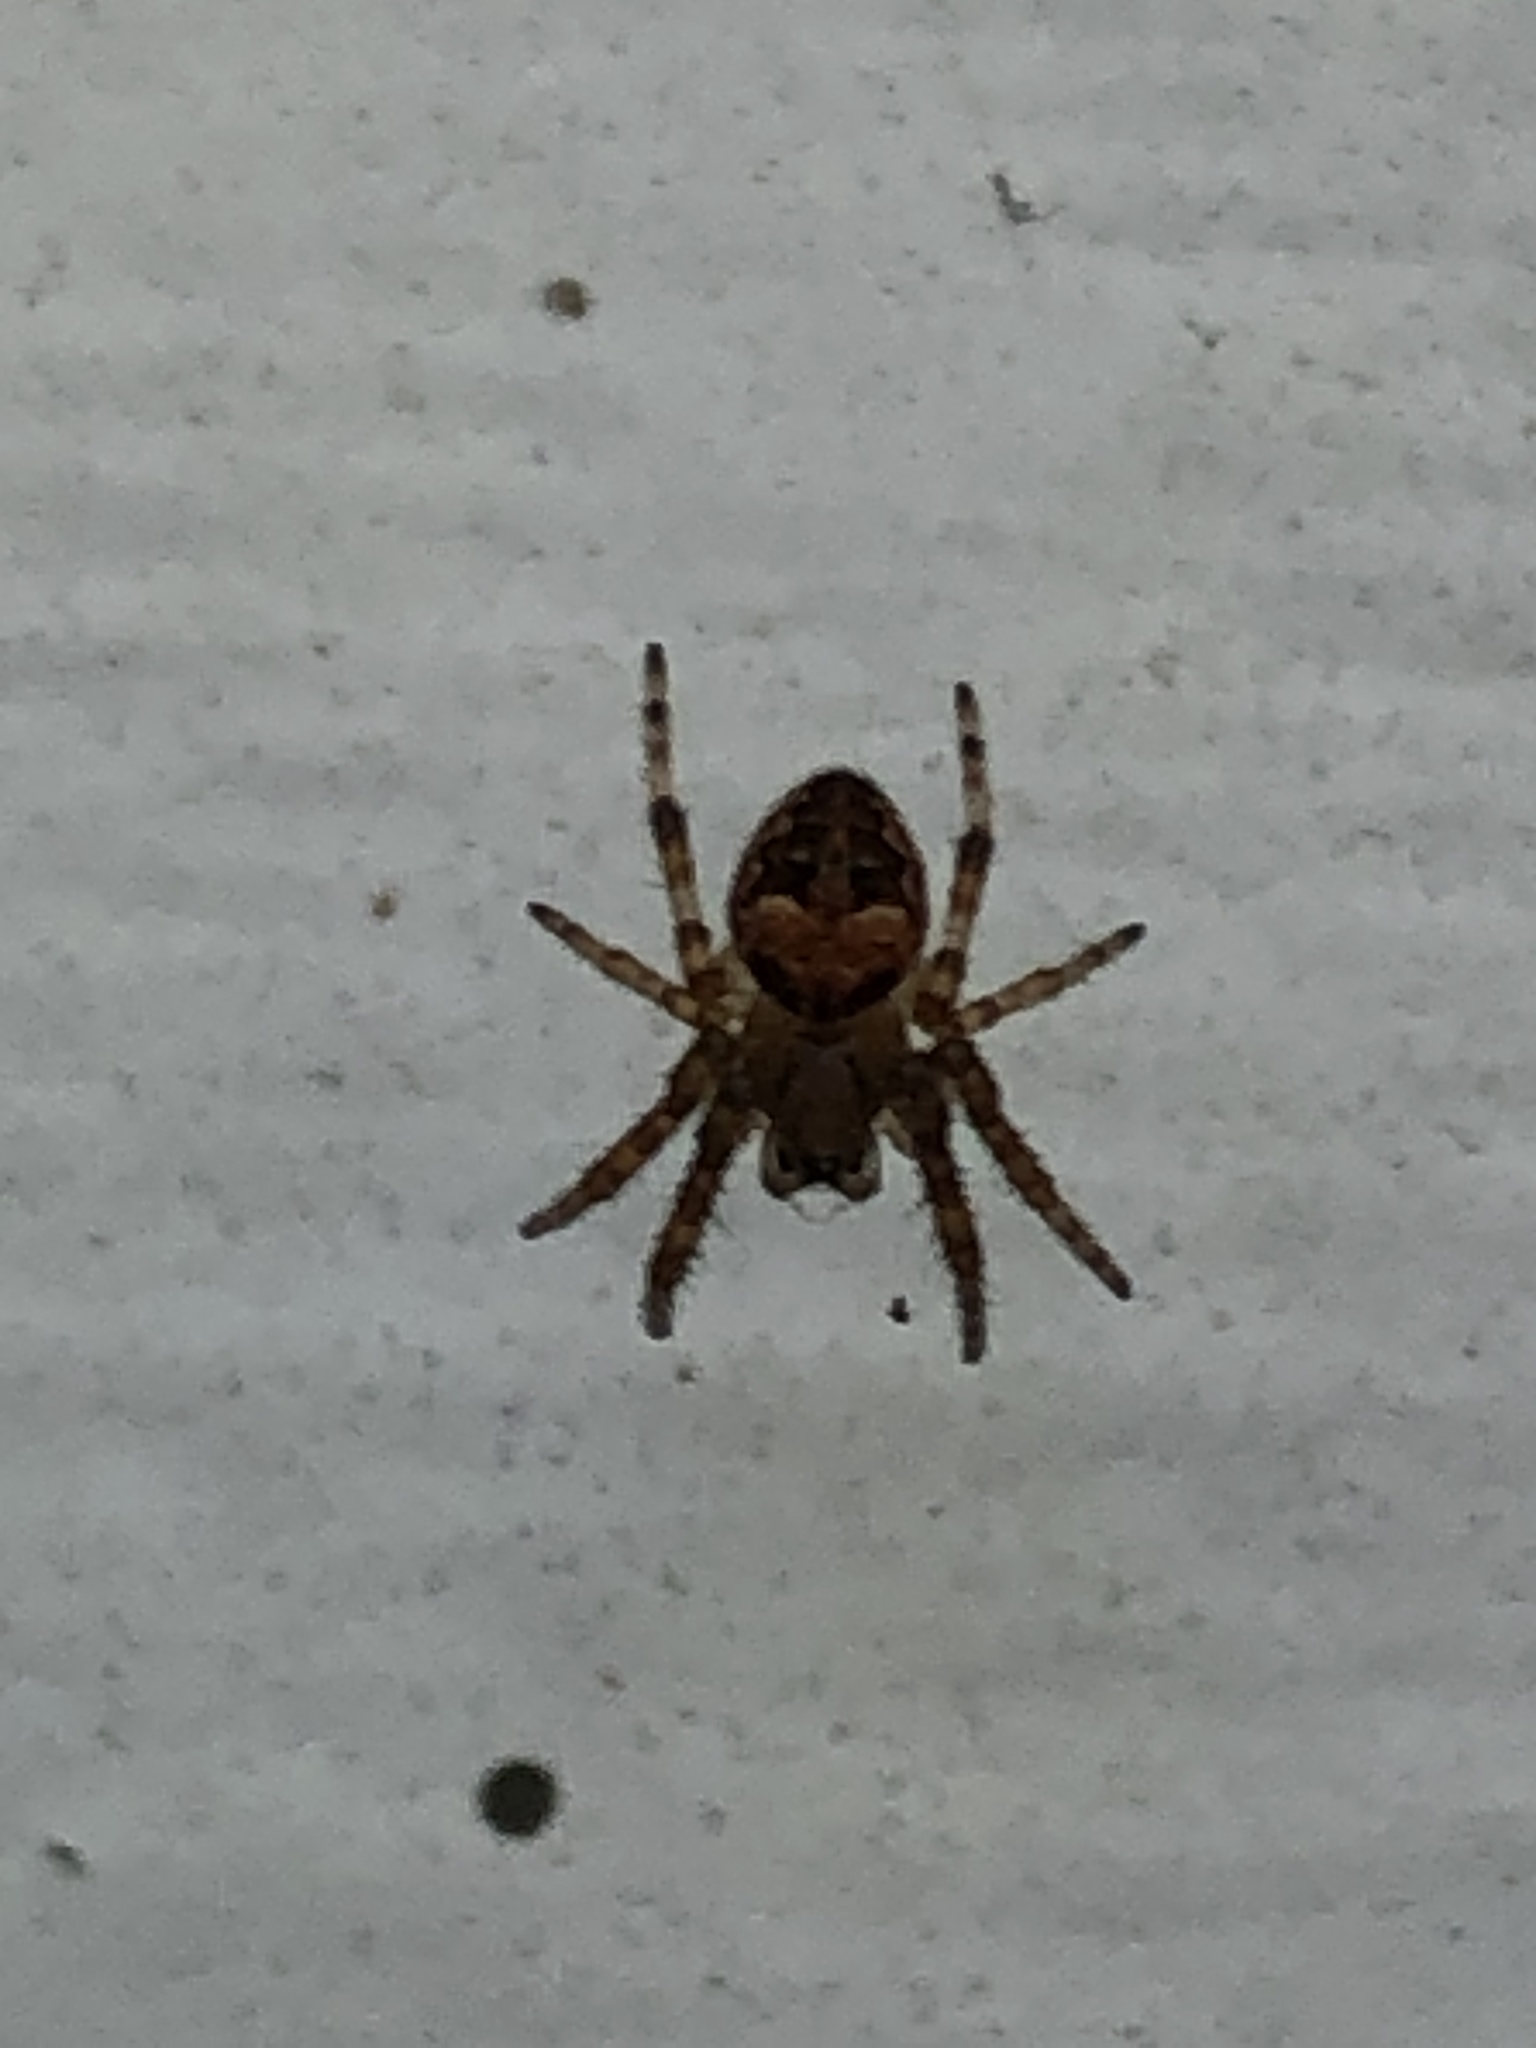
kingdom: Animalia
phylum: Arthropoda
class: Arachnida
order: Araneae
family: Araneidae
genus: Larinioides
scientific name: Larinioides patagiatus
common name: Ornamental orbweaver
